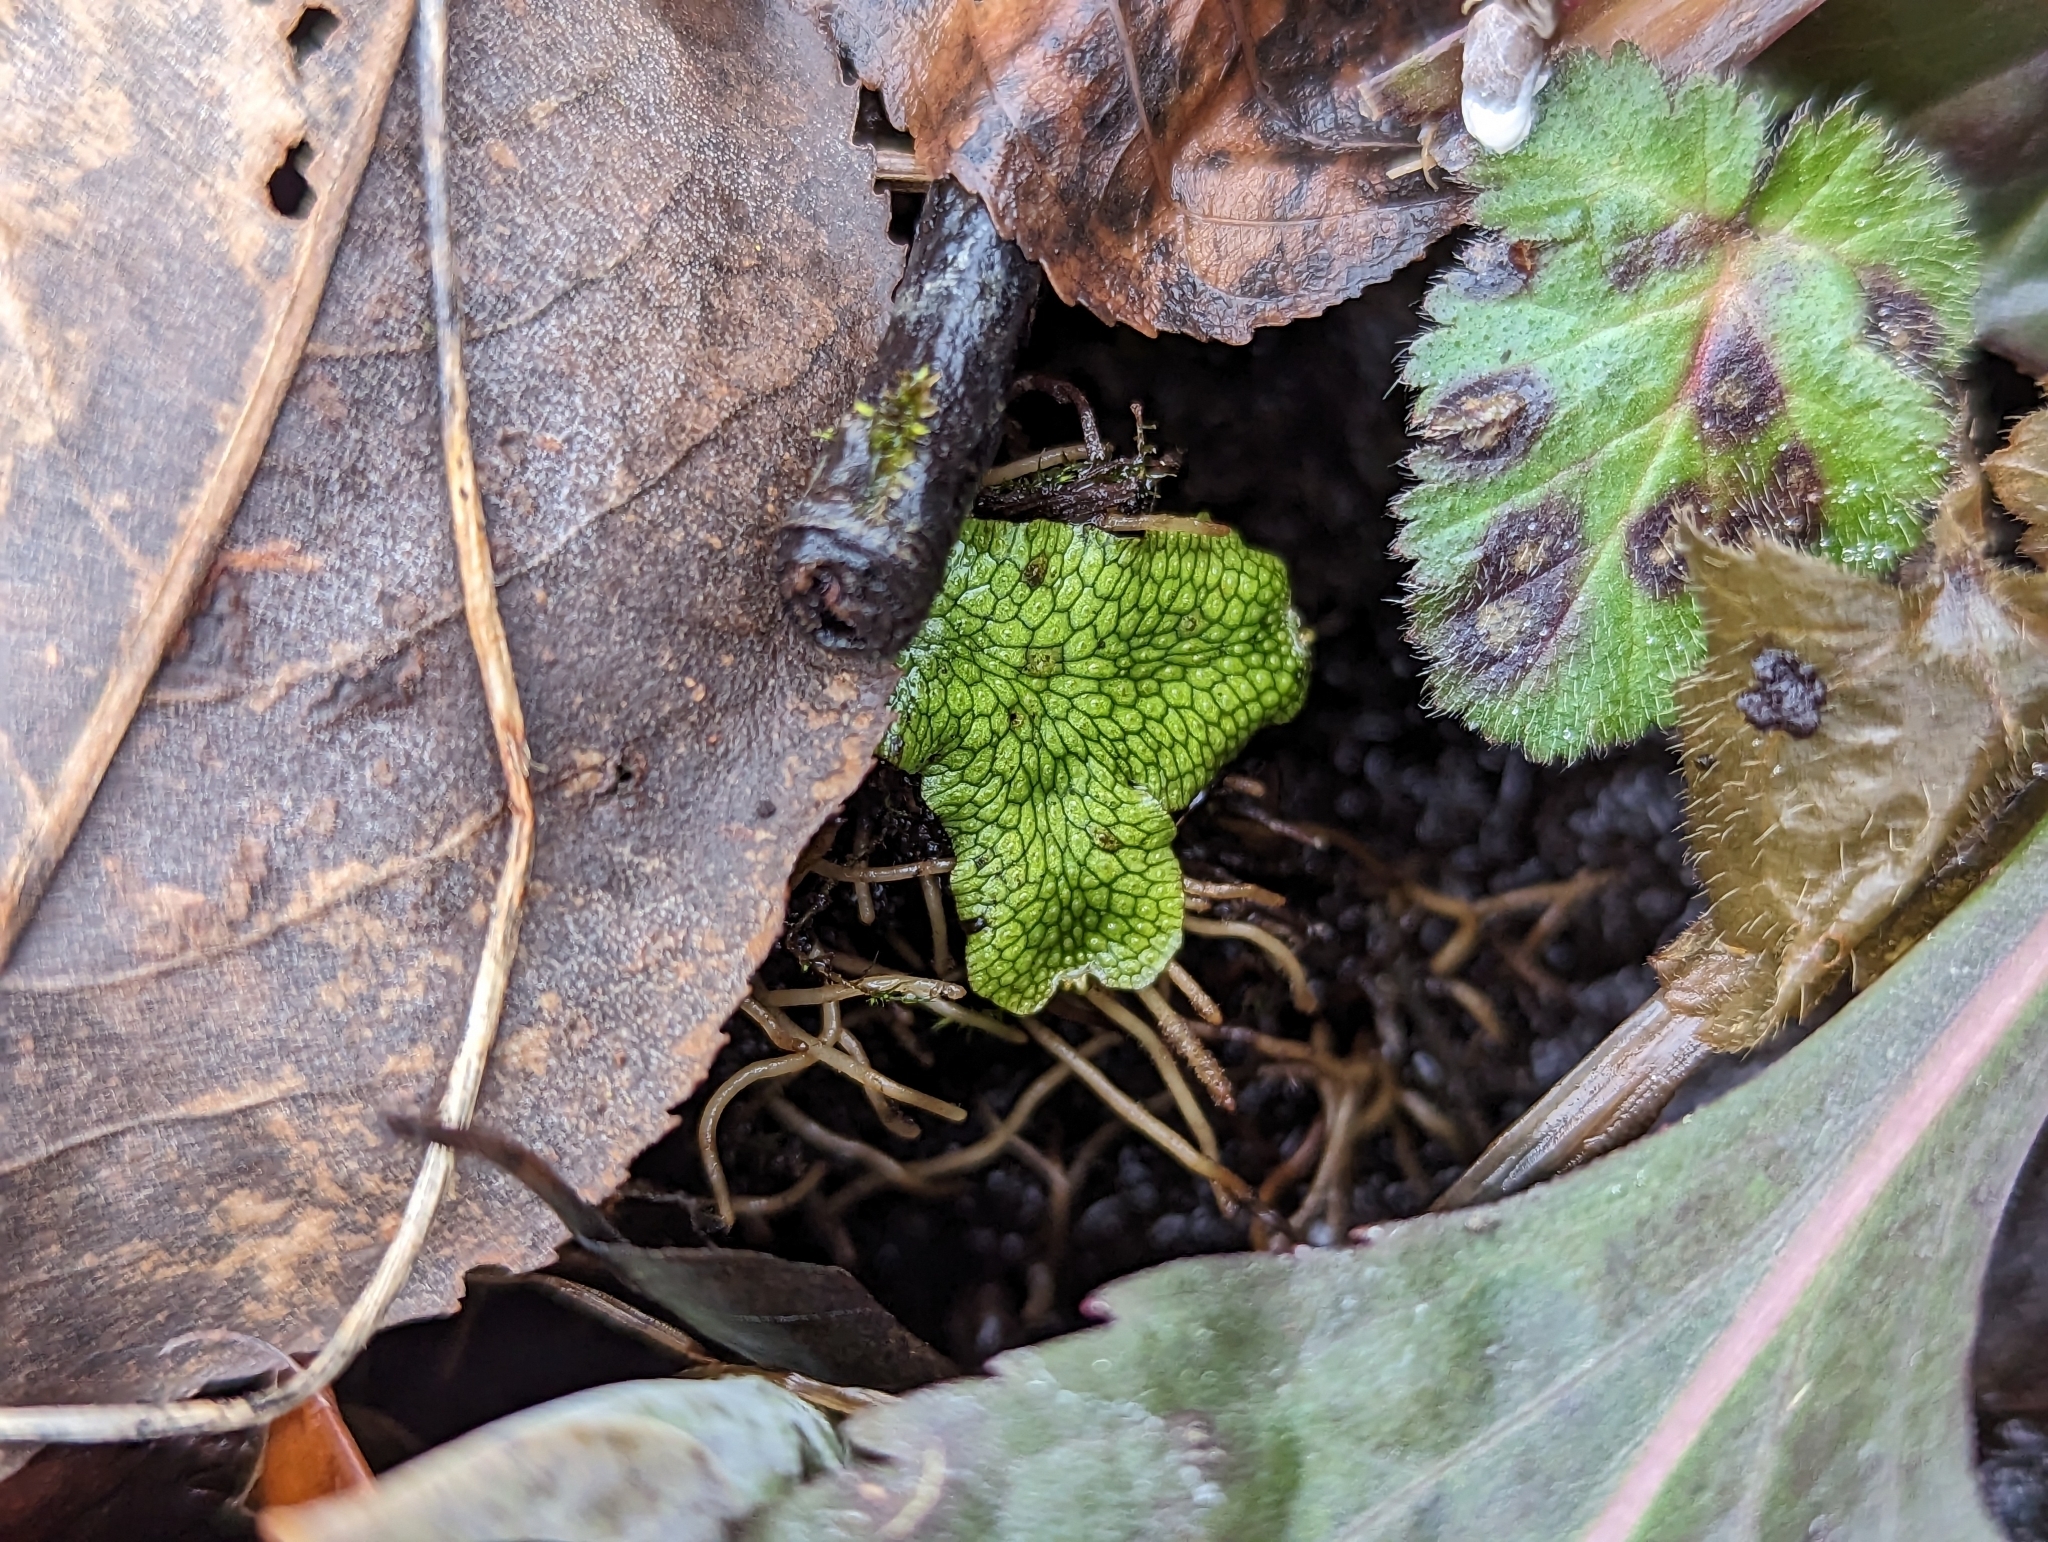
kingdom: Plantae
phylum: Marchantiophyta
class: Marchantiopsida
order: Marchantiales
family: Conocephalaceae
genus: Conocephalum
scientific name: Conocephalum salebrosum
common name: Cat-tongue liverwort
